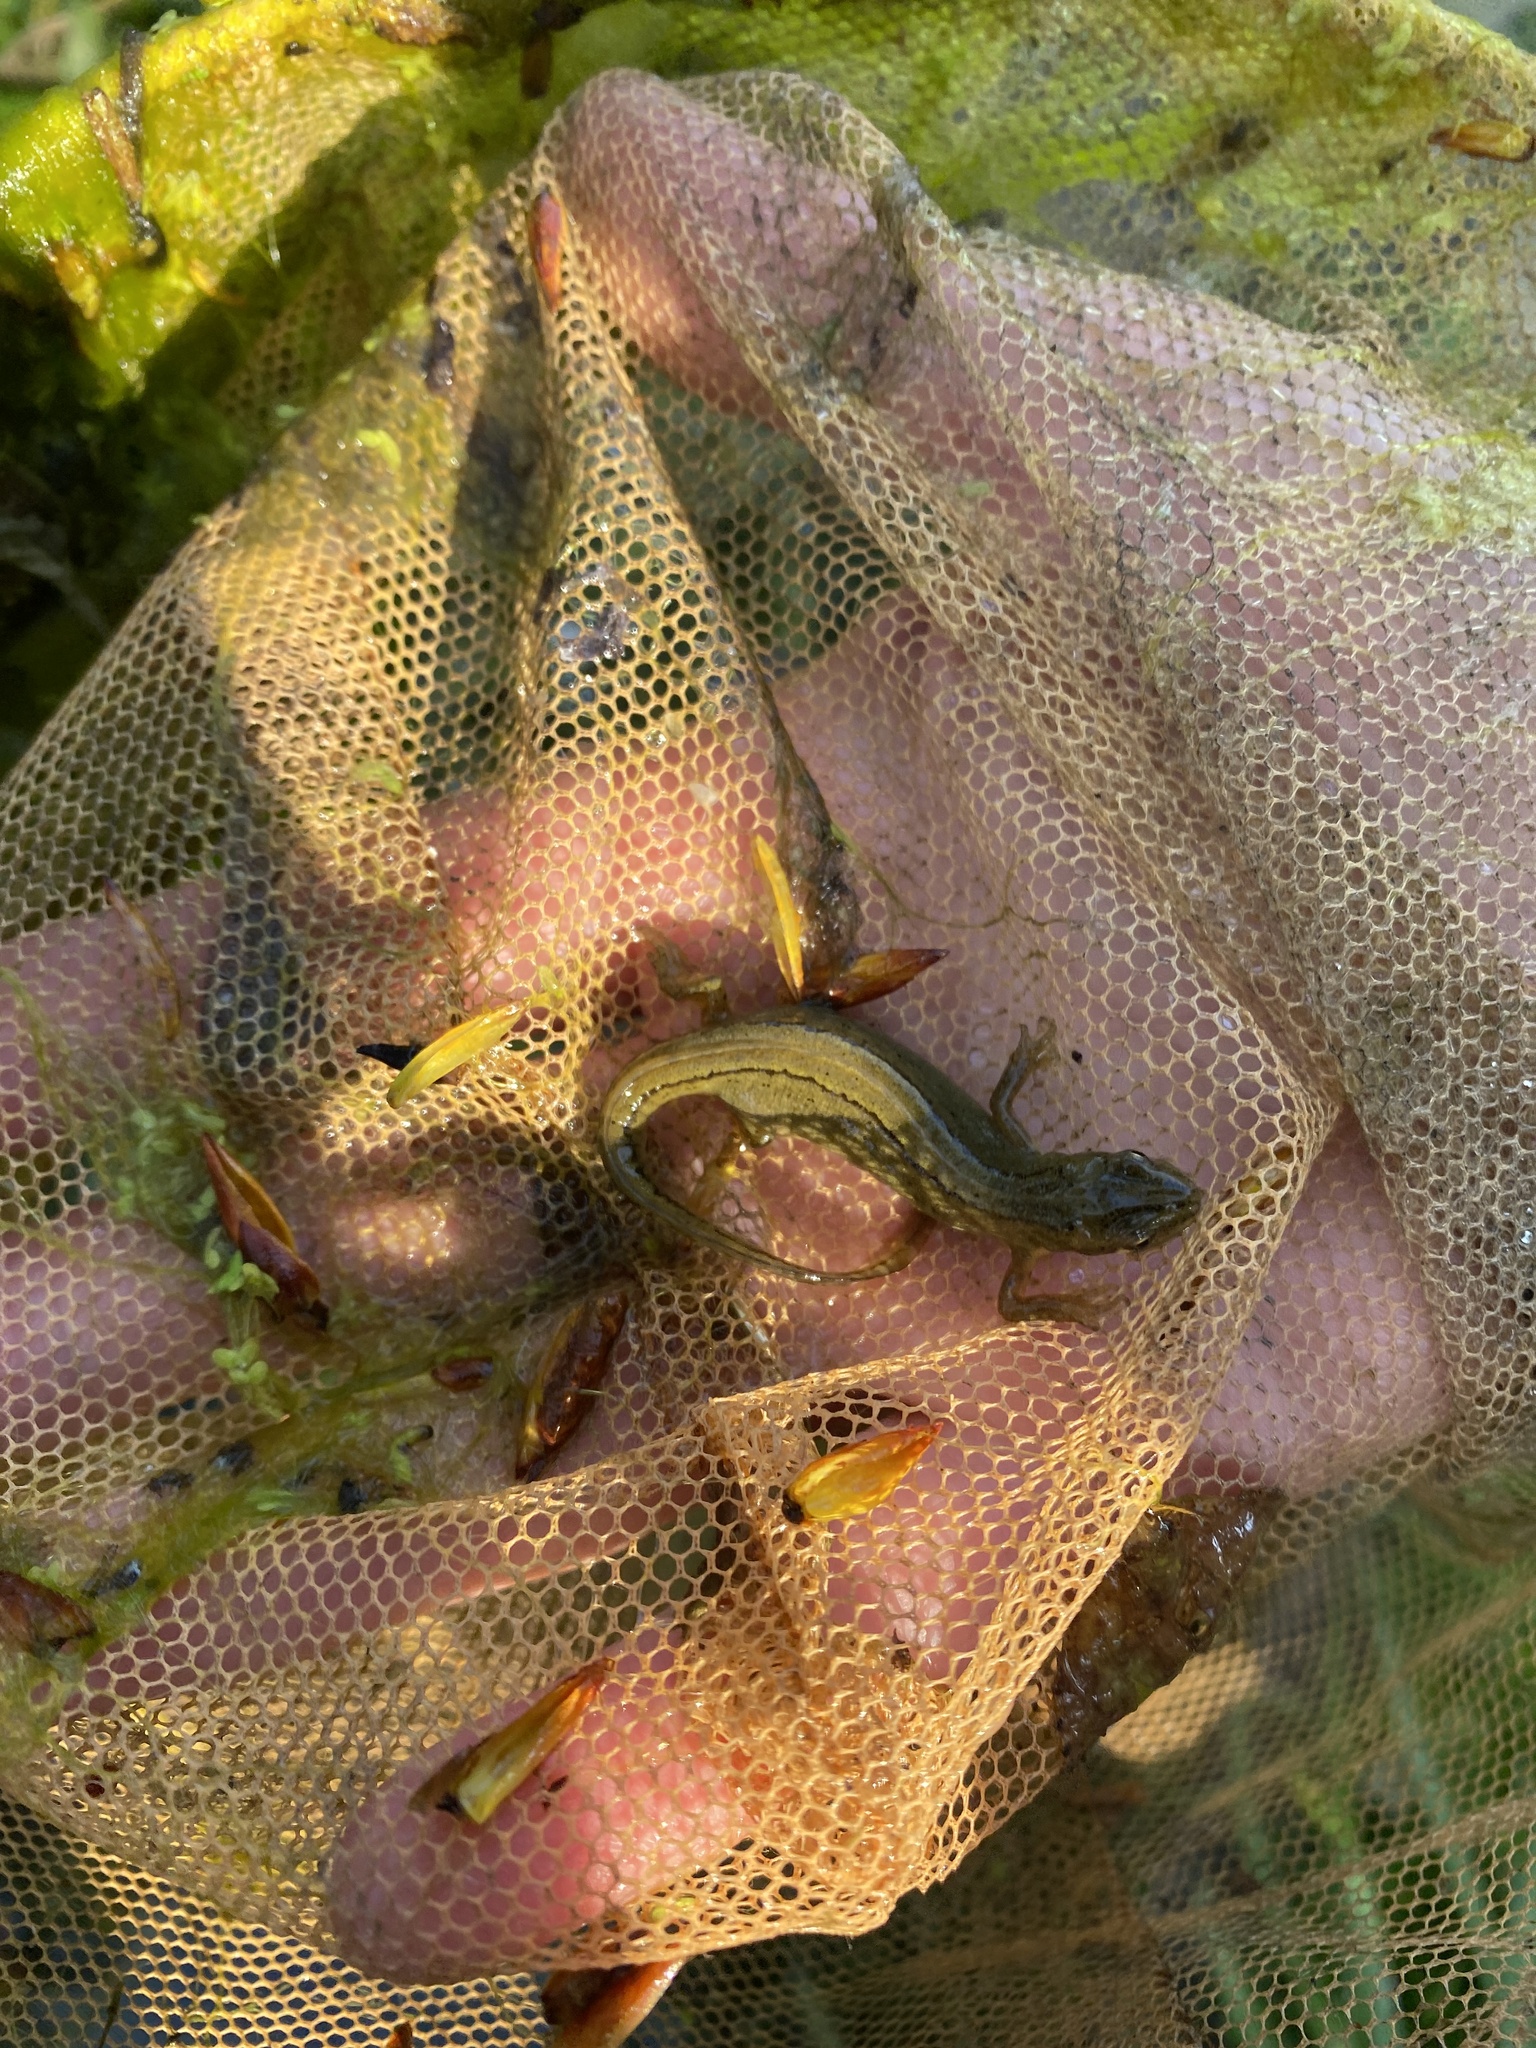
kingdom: Animalia
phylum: Chordata
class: Amphibia
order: Caudata
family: Salamandridae
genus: Lissotriton
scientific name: Lissotriton vulgaris
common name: Smooth newt
